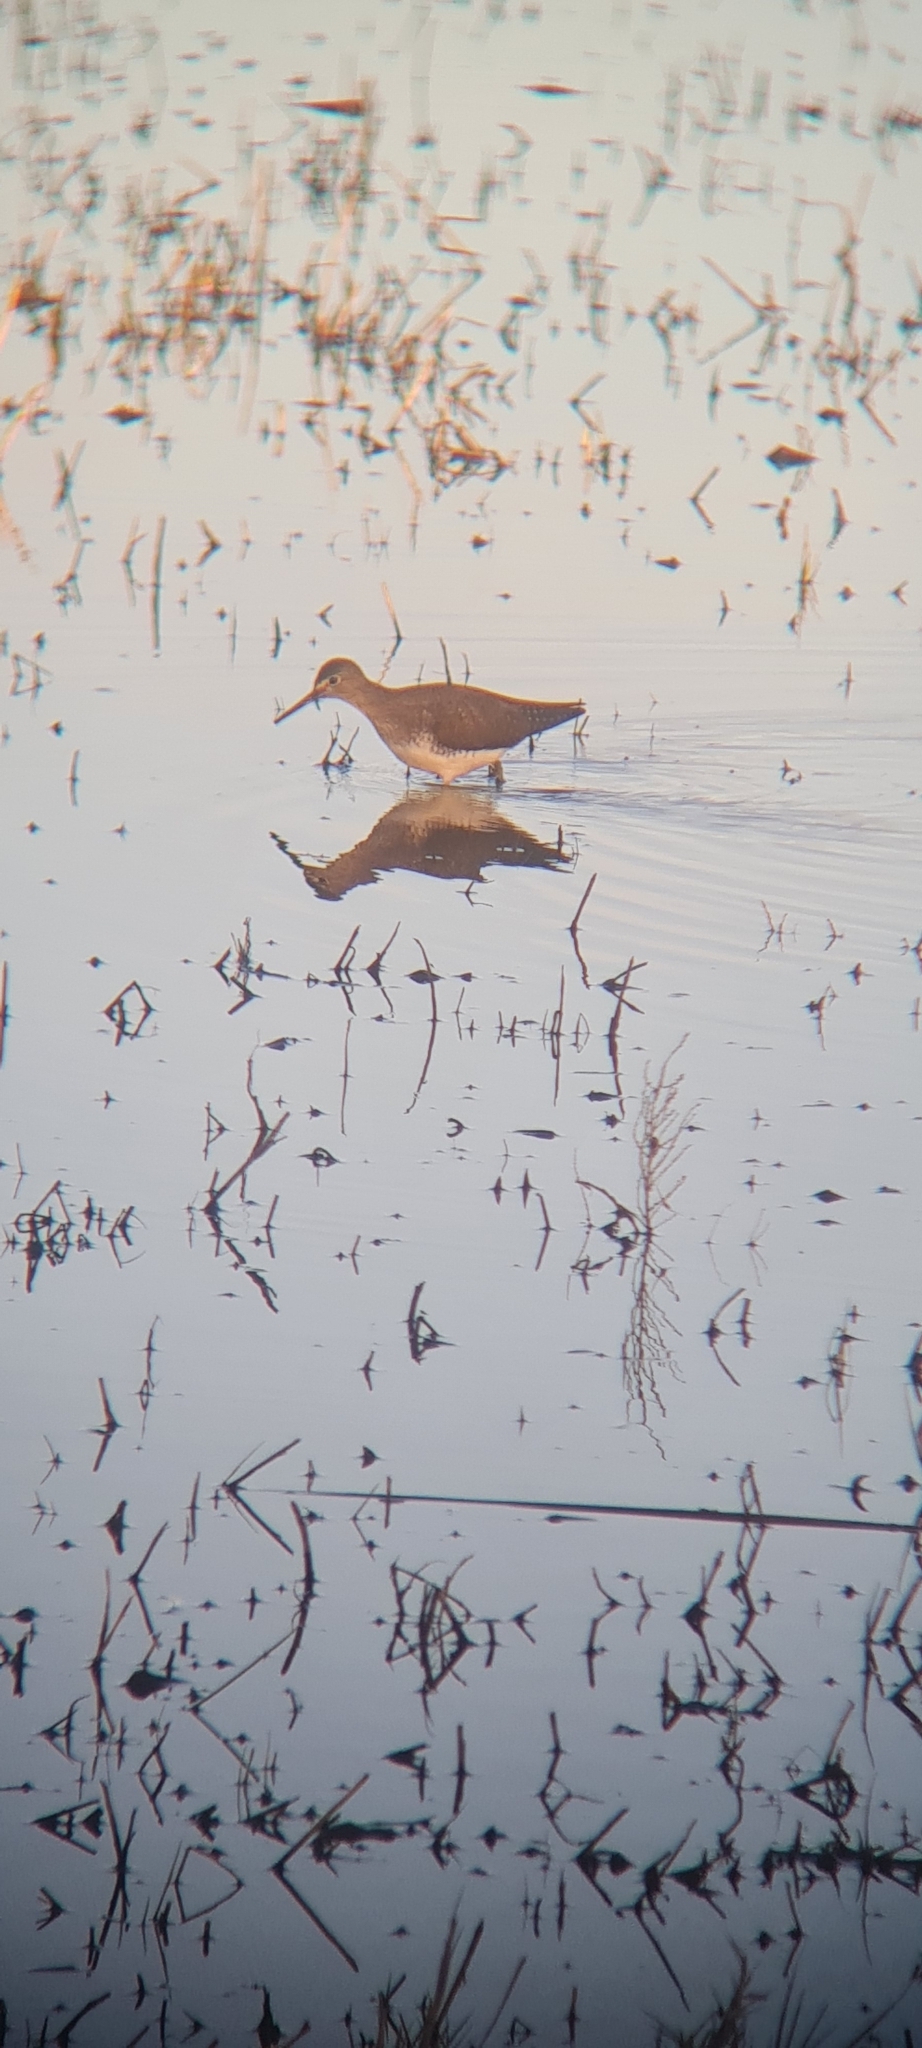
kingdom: Animalia
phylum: Chordata
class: Aves
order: Charadriiformes
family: Scolopacidae
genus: Tringa
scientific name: Tringa ochropus
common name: Green sandpiper
